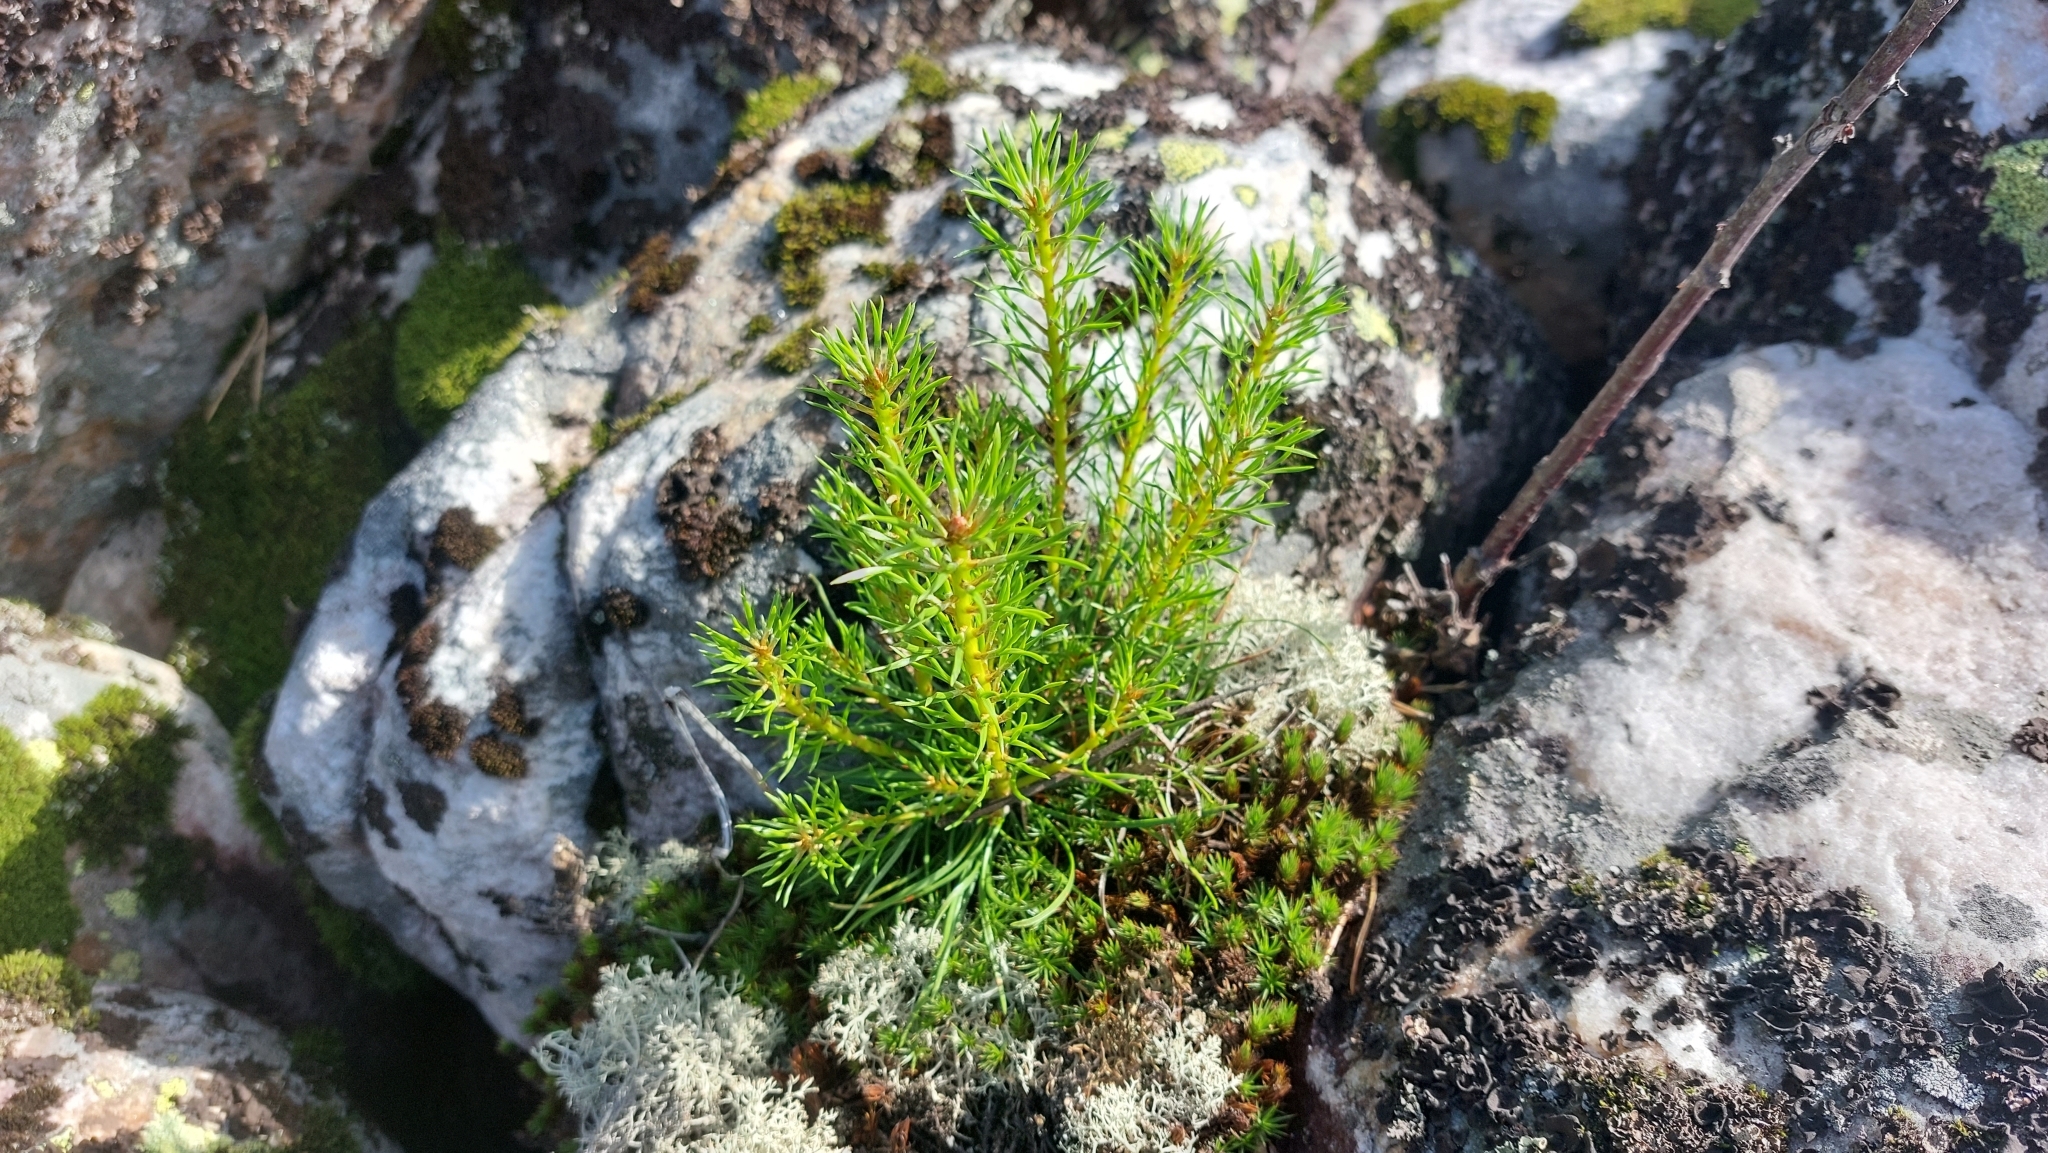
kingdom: Plantae
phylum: Tracheophyta
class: Pinopsida
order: Pinales
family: Pinaceae
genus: Pinus
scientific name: Pinus sylvestris
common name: Scots pine
